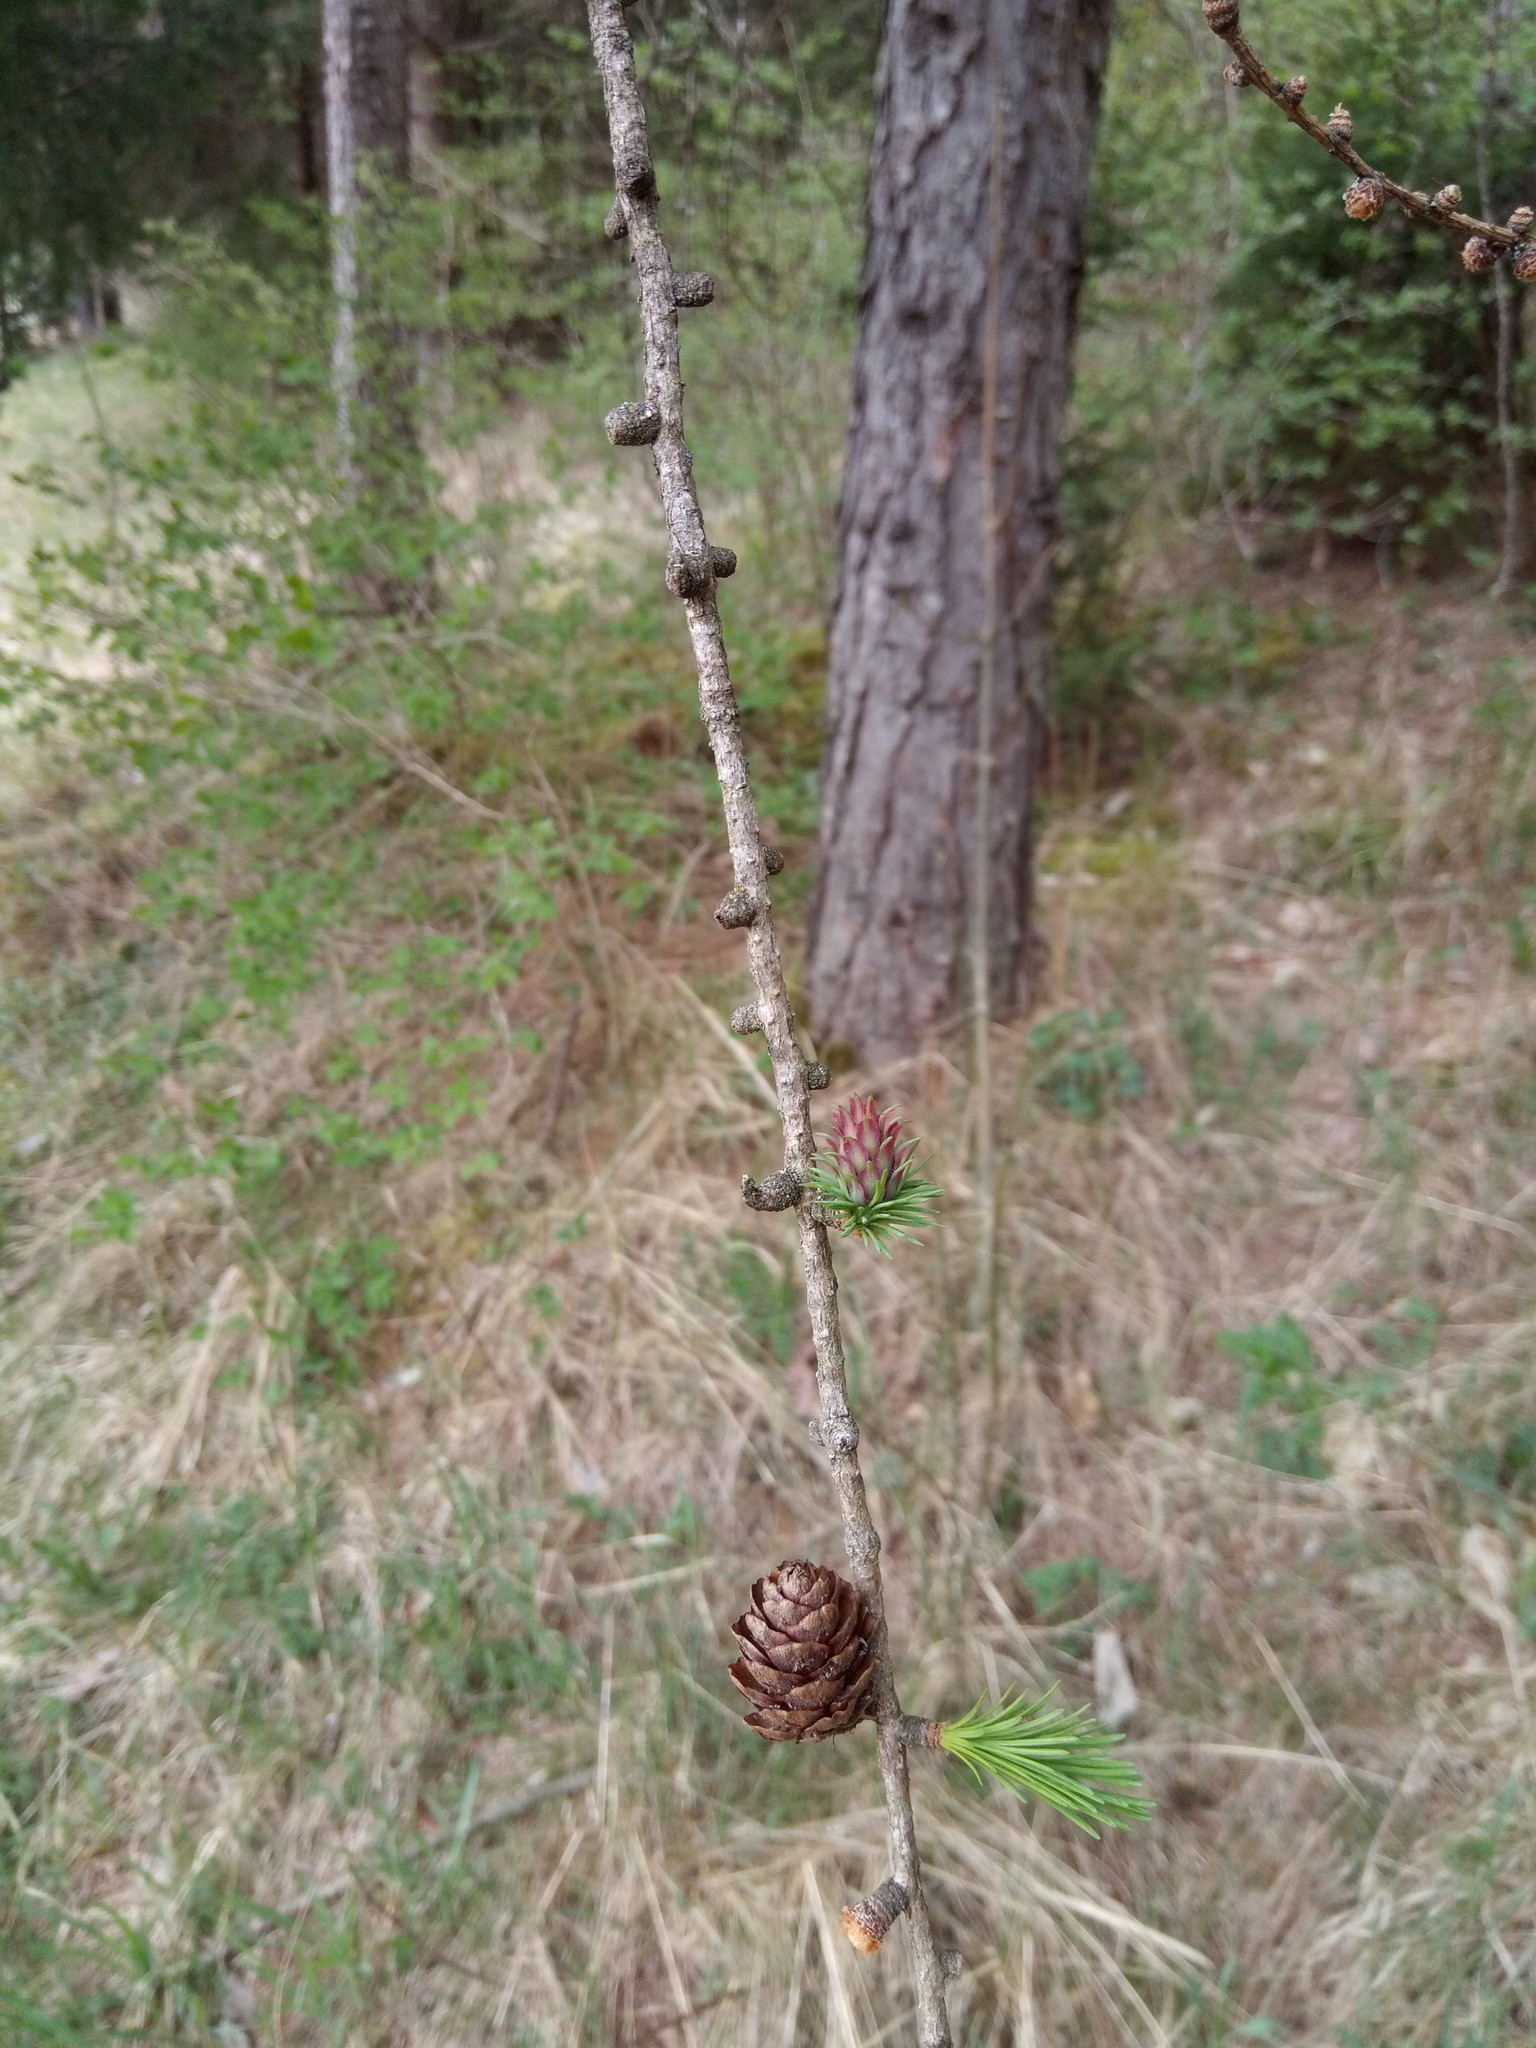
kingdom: Plantae
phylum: Tracheophyta
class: Pinopsida
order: Pinales
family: Pinaceae
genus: Larix
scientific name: Larix decidua
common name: European larch
